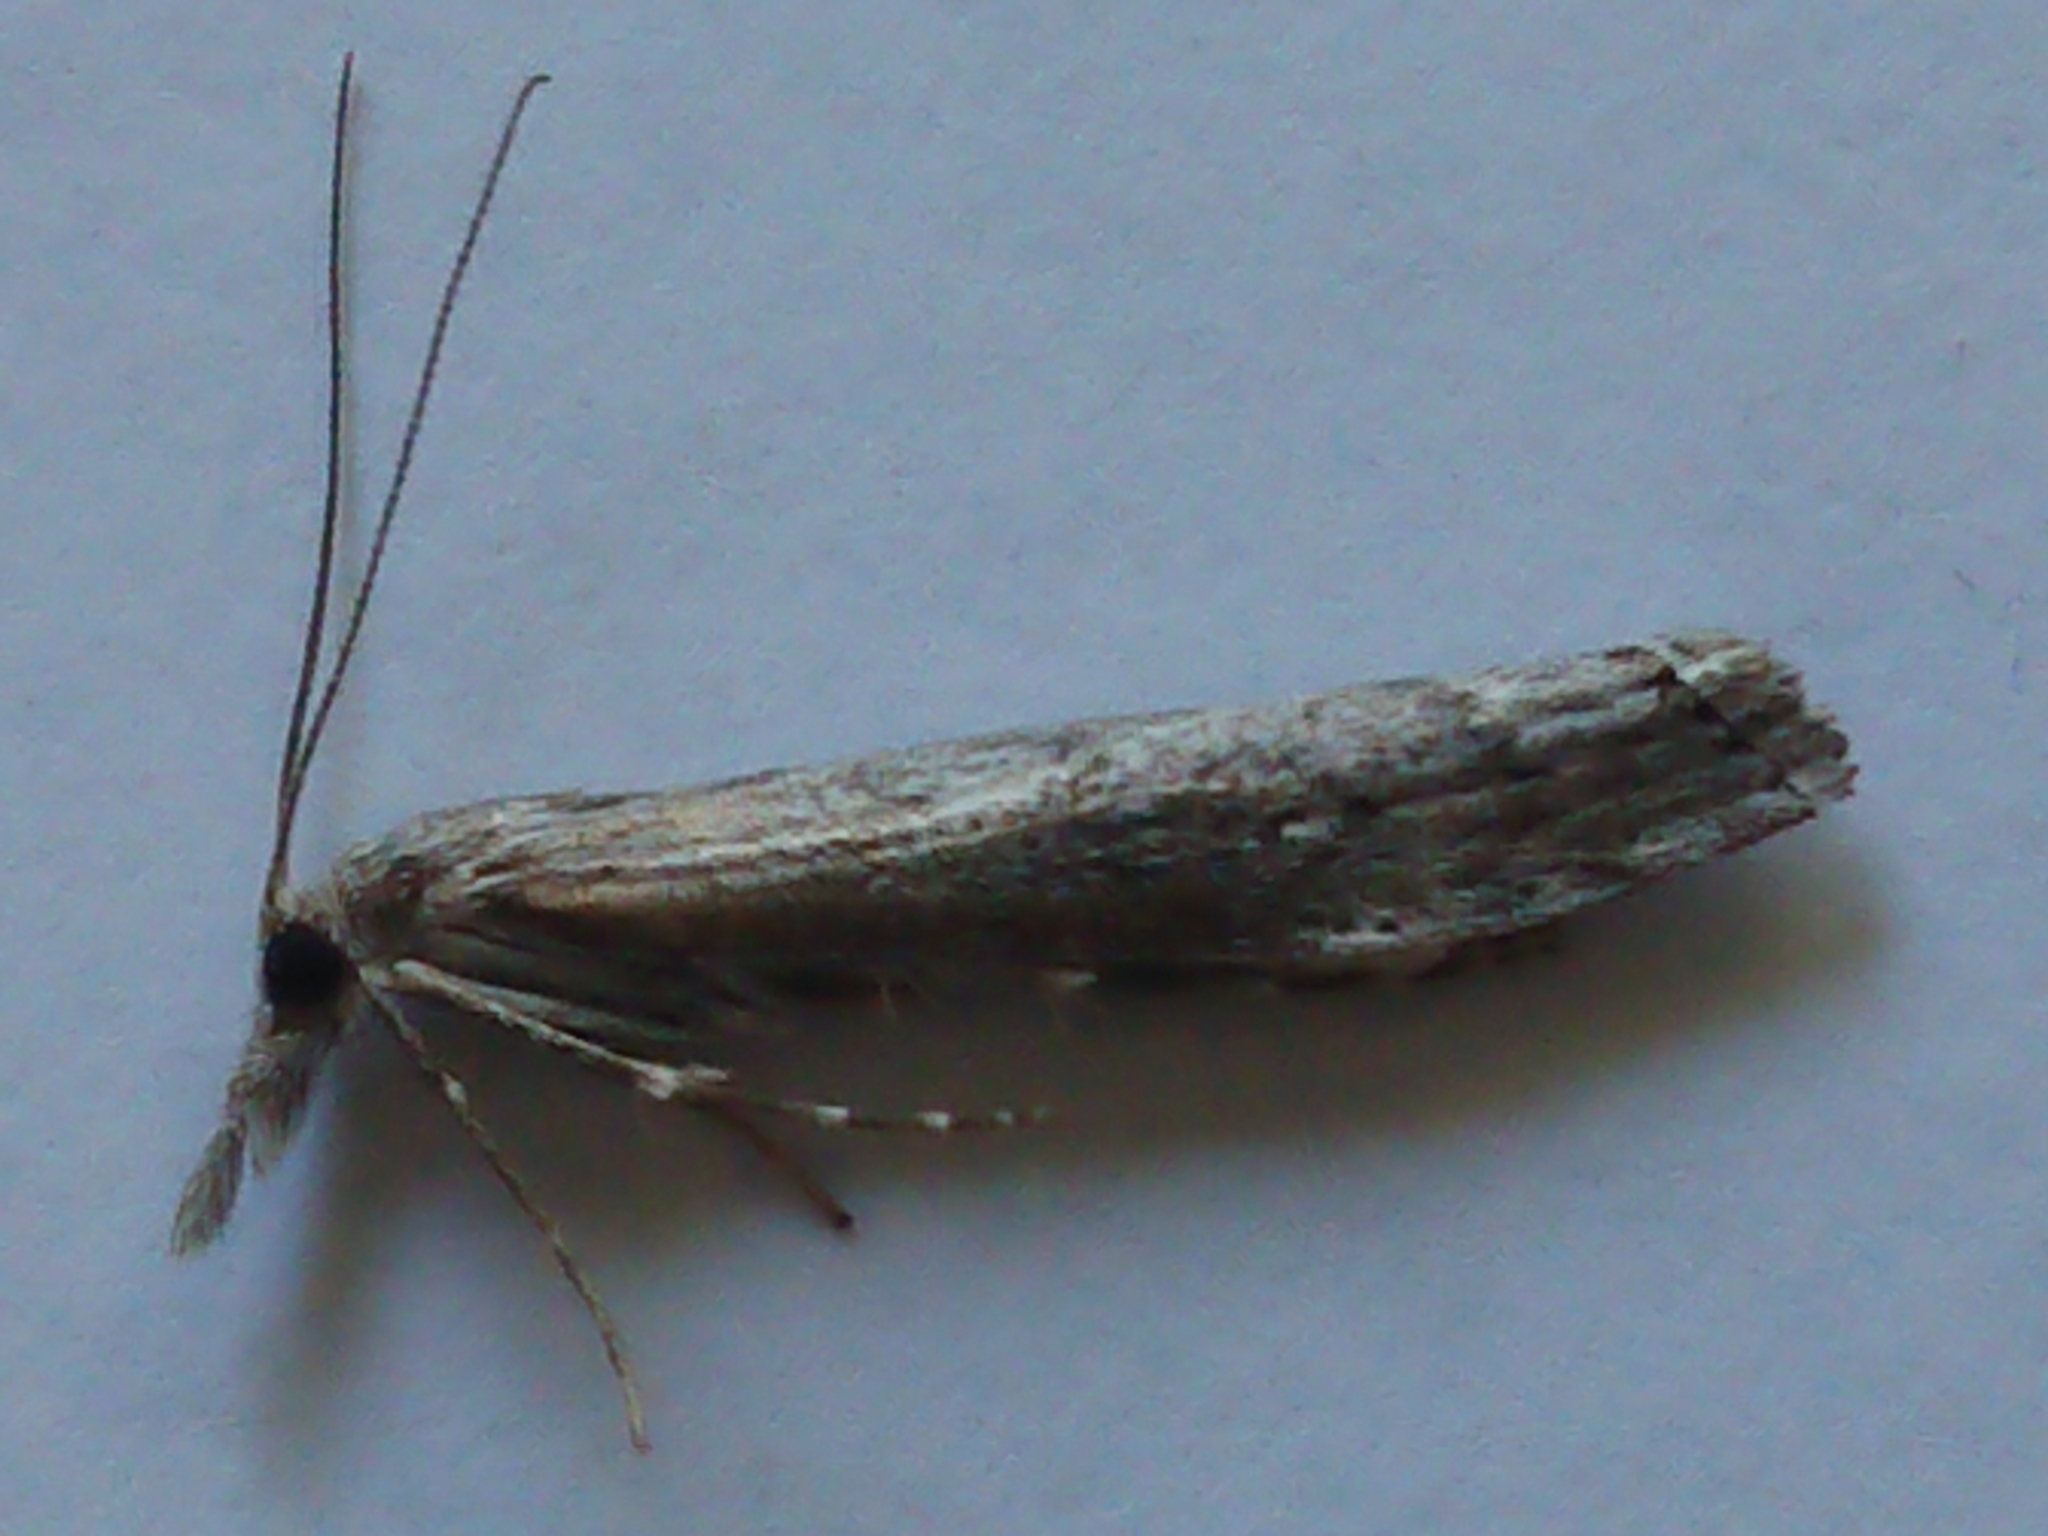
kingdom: Animalia
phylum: Arthropoda
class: Insecta
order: Lepidoptera
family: Crambidae
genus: Orocrambus
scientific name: Orocrambus cyclopicus
